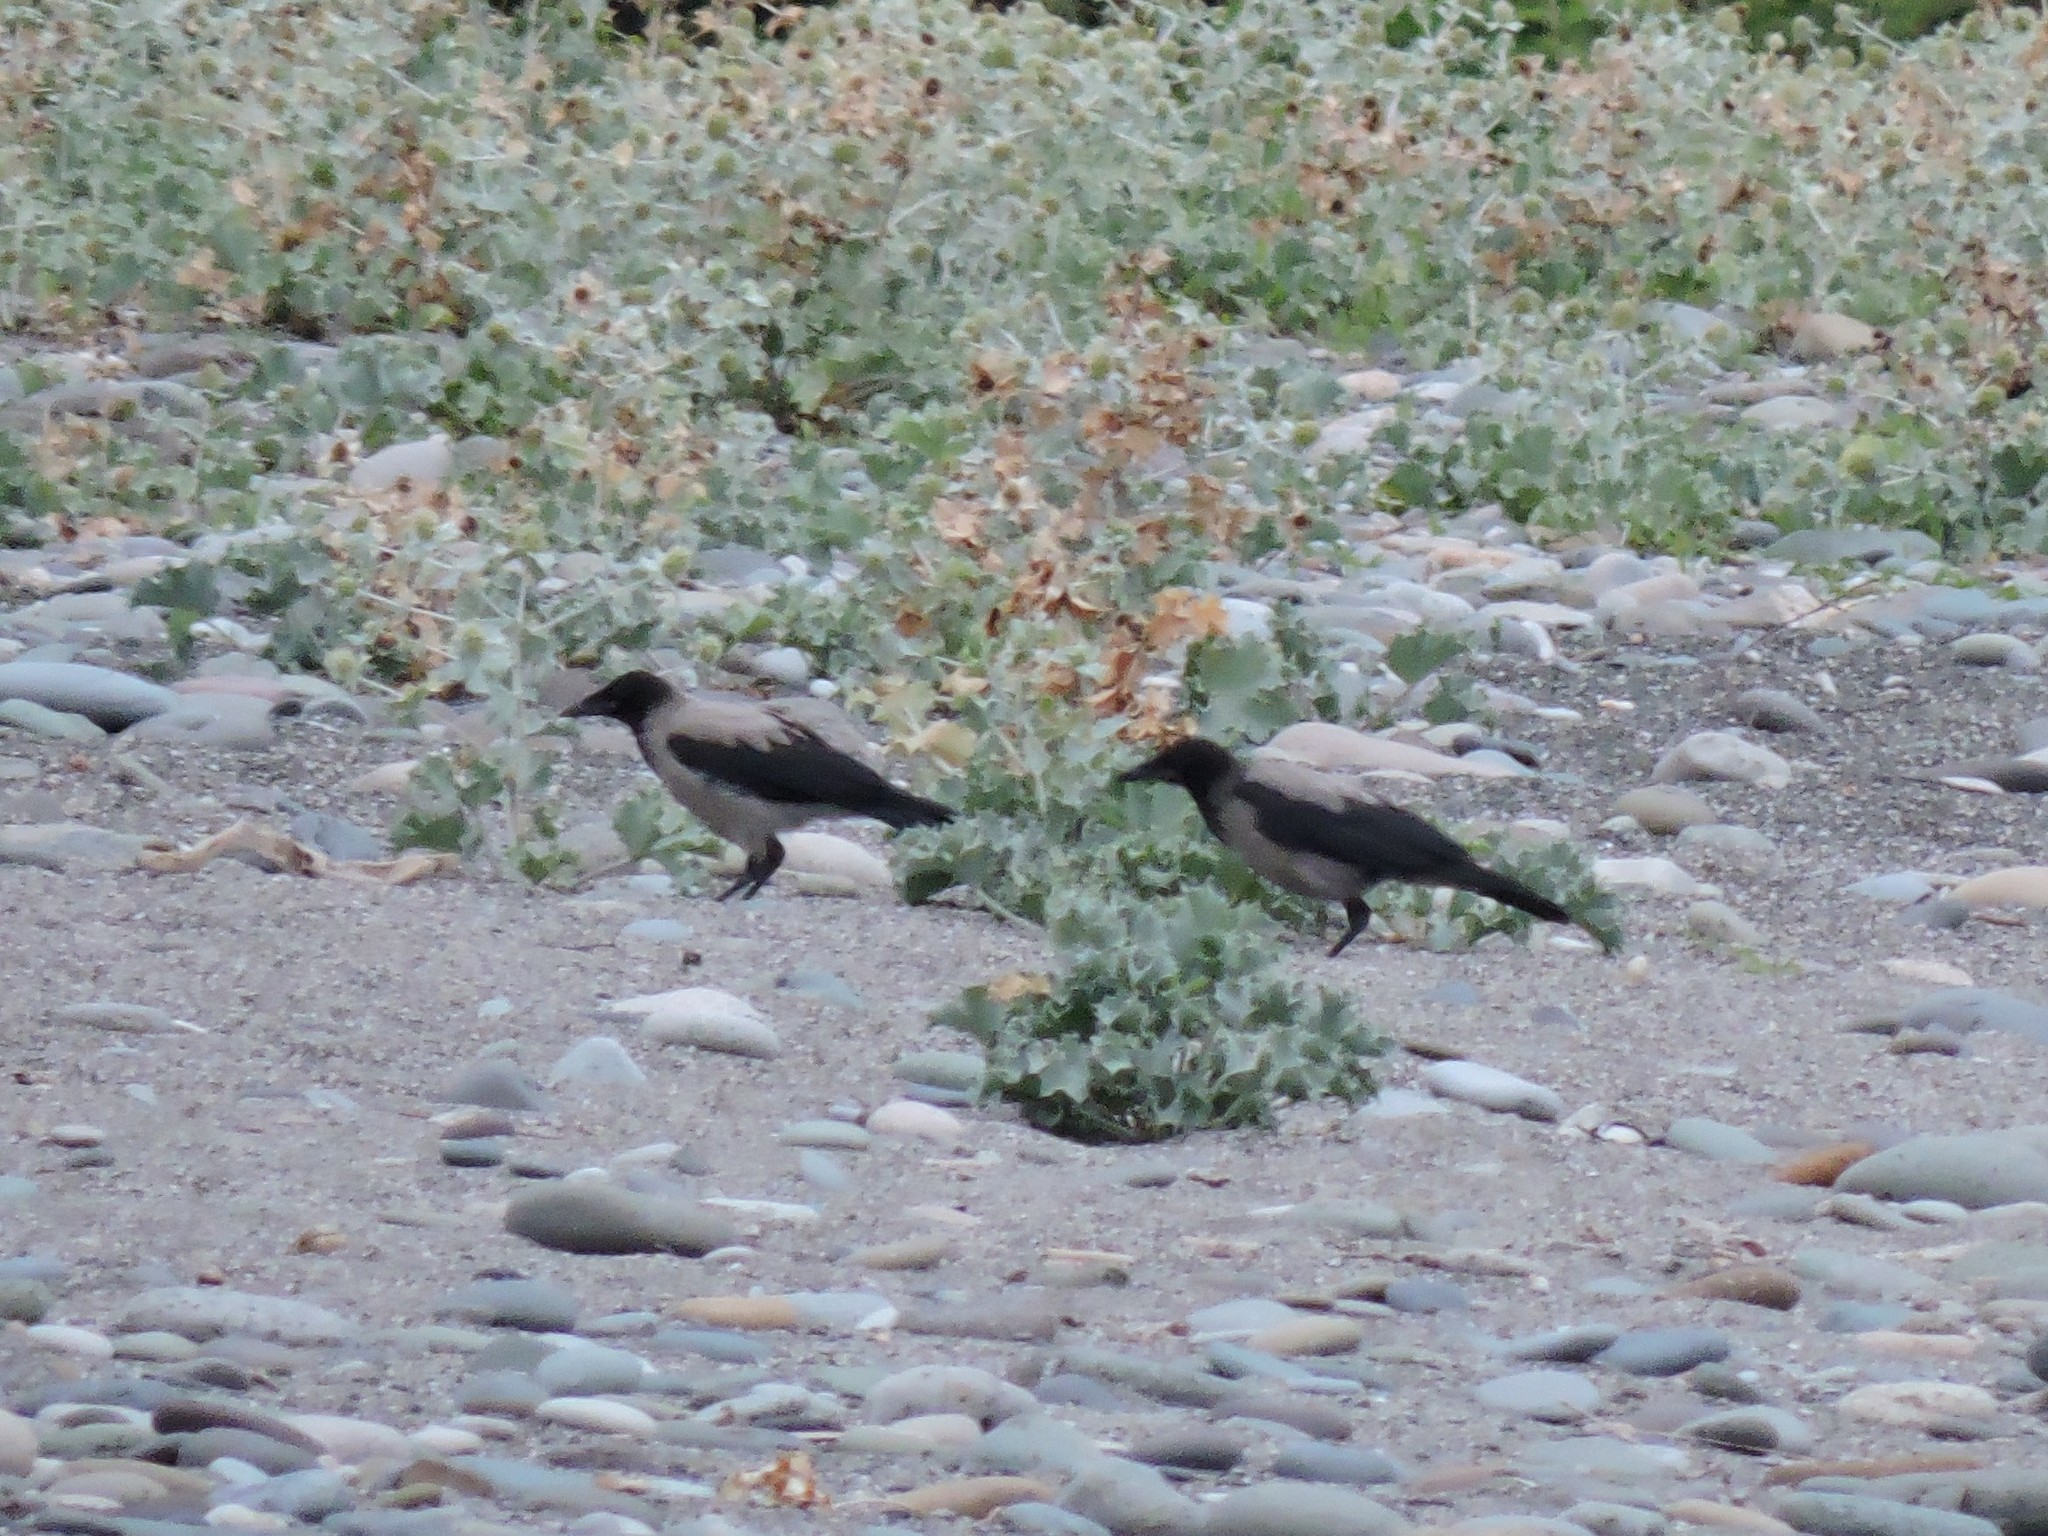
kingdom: Animalia
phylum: Chordata
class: Aves
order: Passeriformes
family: Corvidae
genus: Corvus
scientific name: Corvus cornix
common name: Hooded crow
